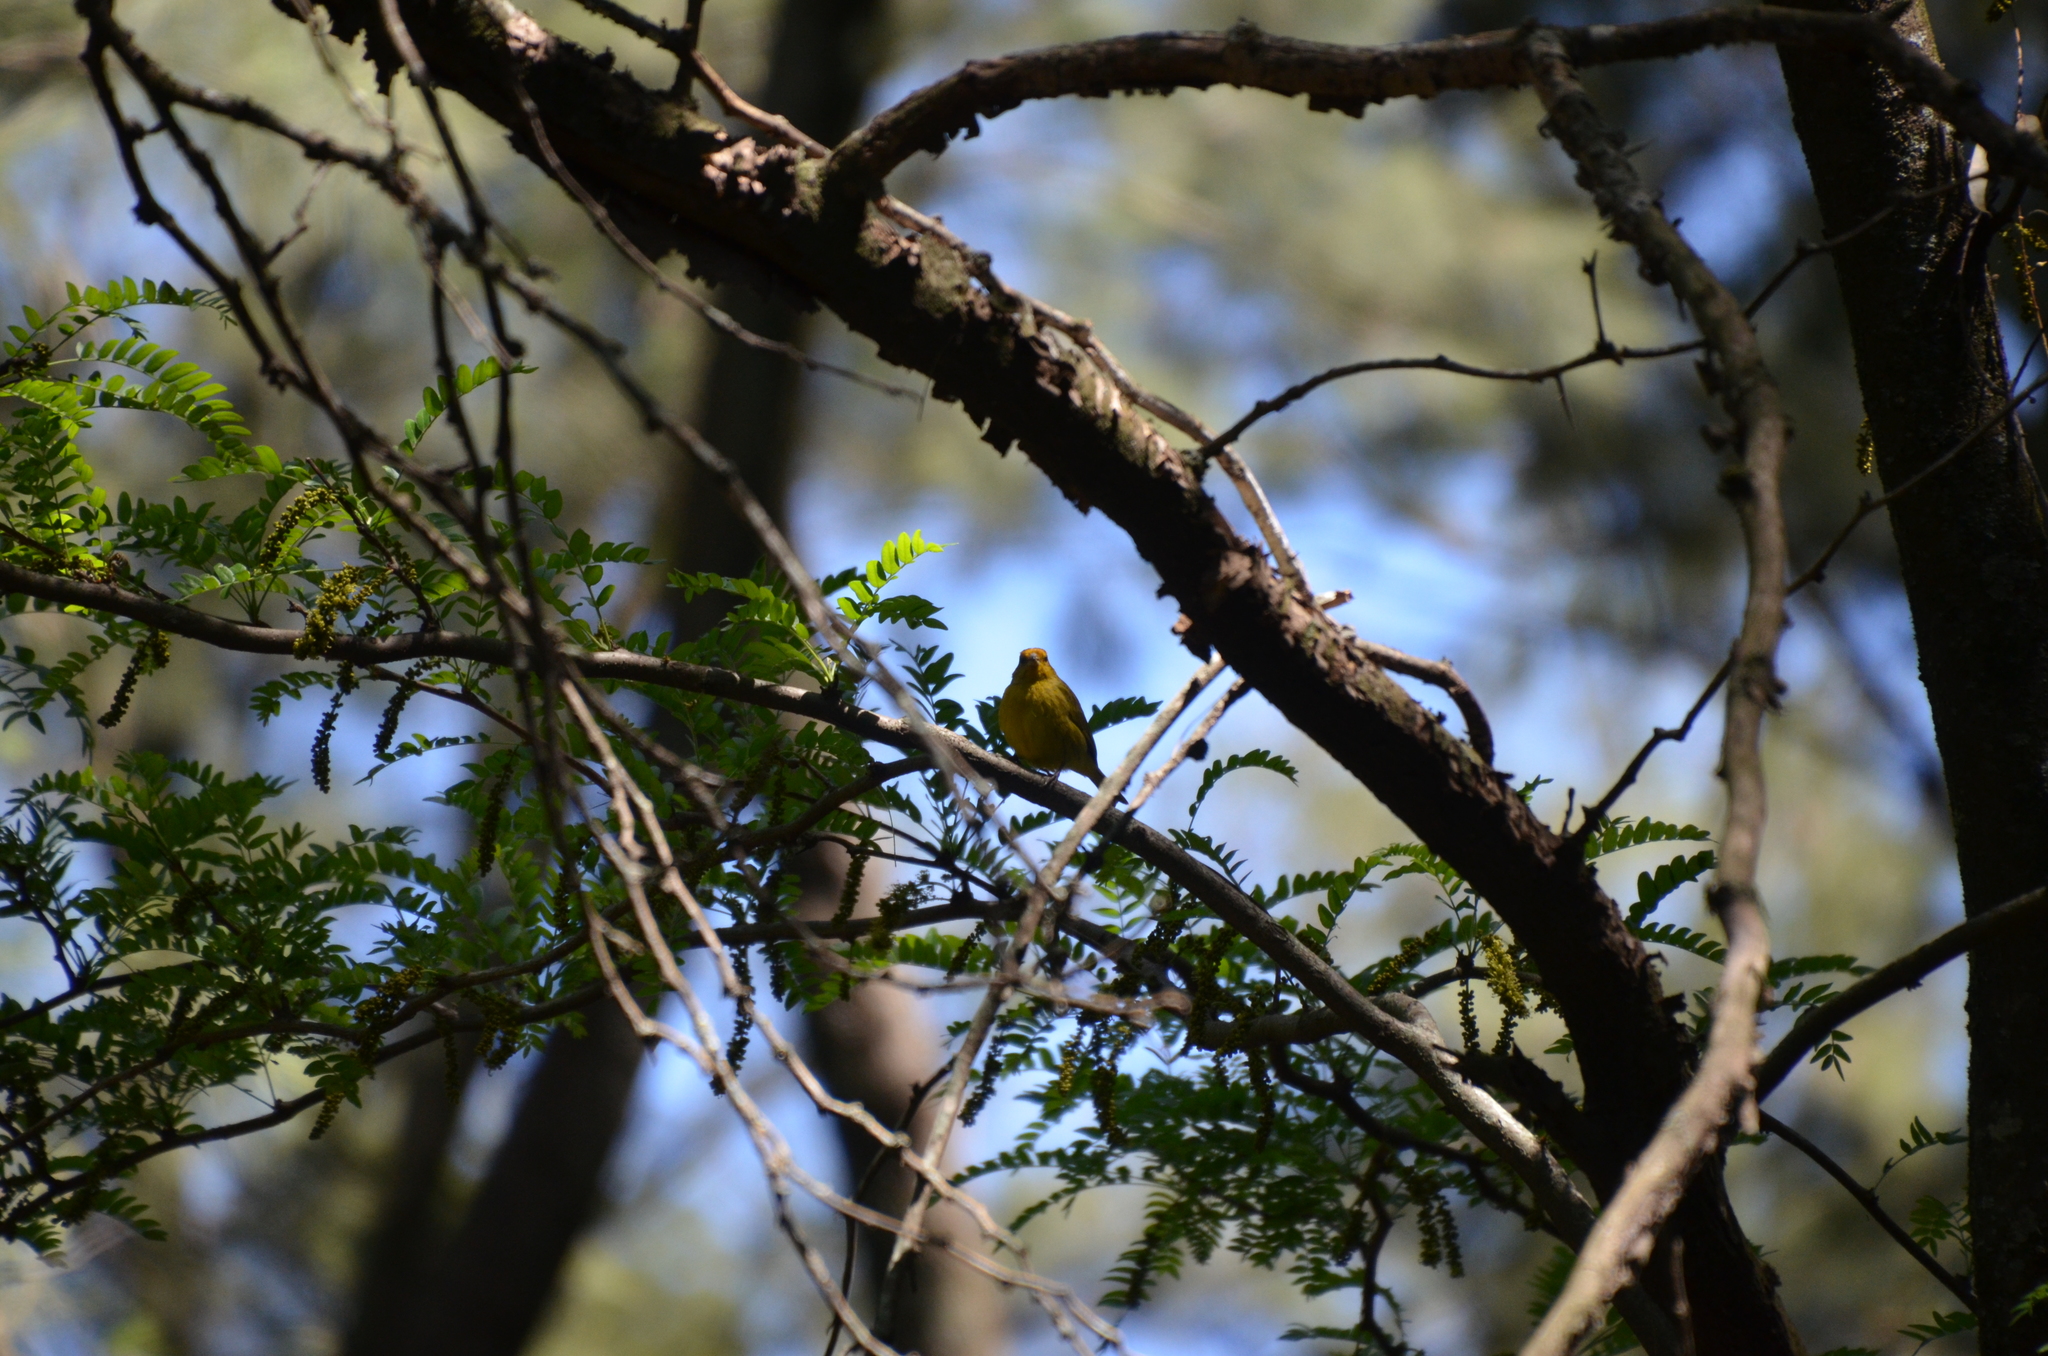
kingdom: Animalia
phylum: Chordata
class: Aves
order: Passeriformes
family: Thraupidae
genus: Sicalis
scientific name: Sicalis flaveola
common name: Saffron finch
